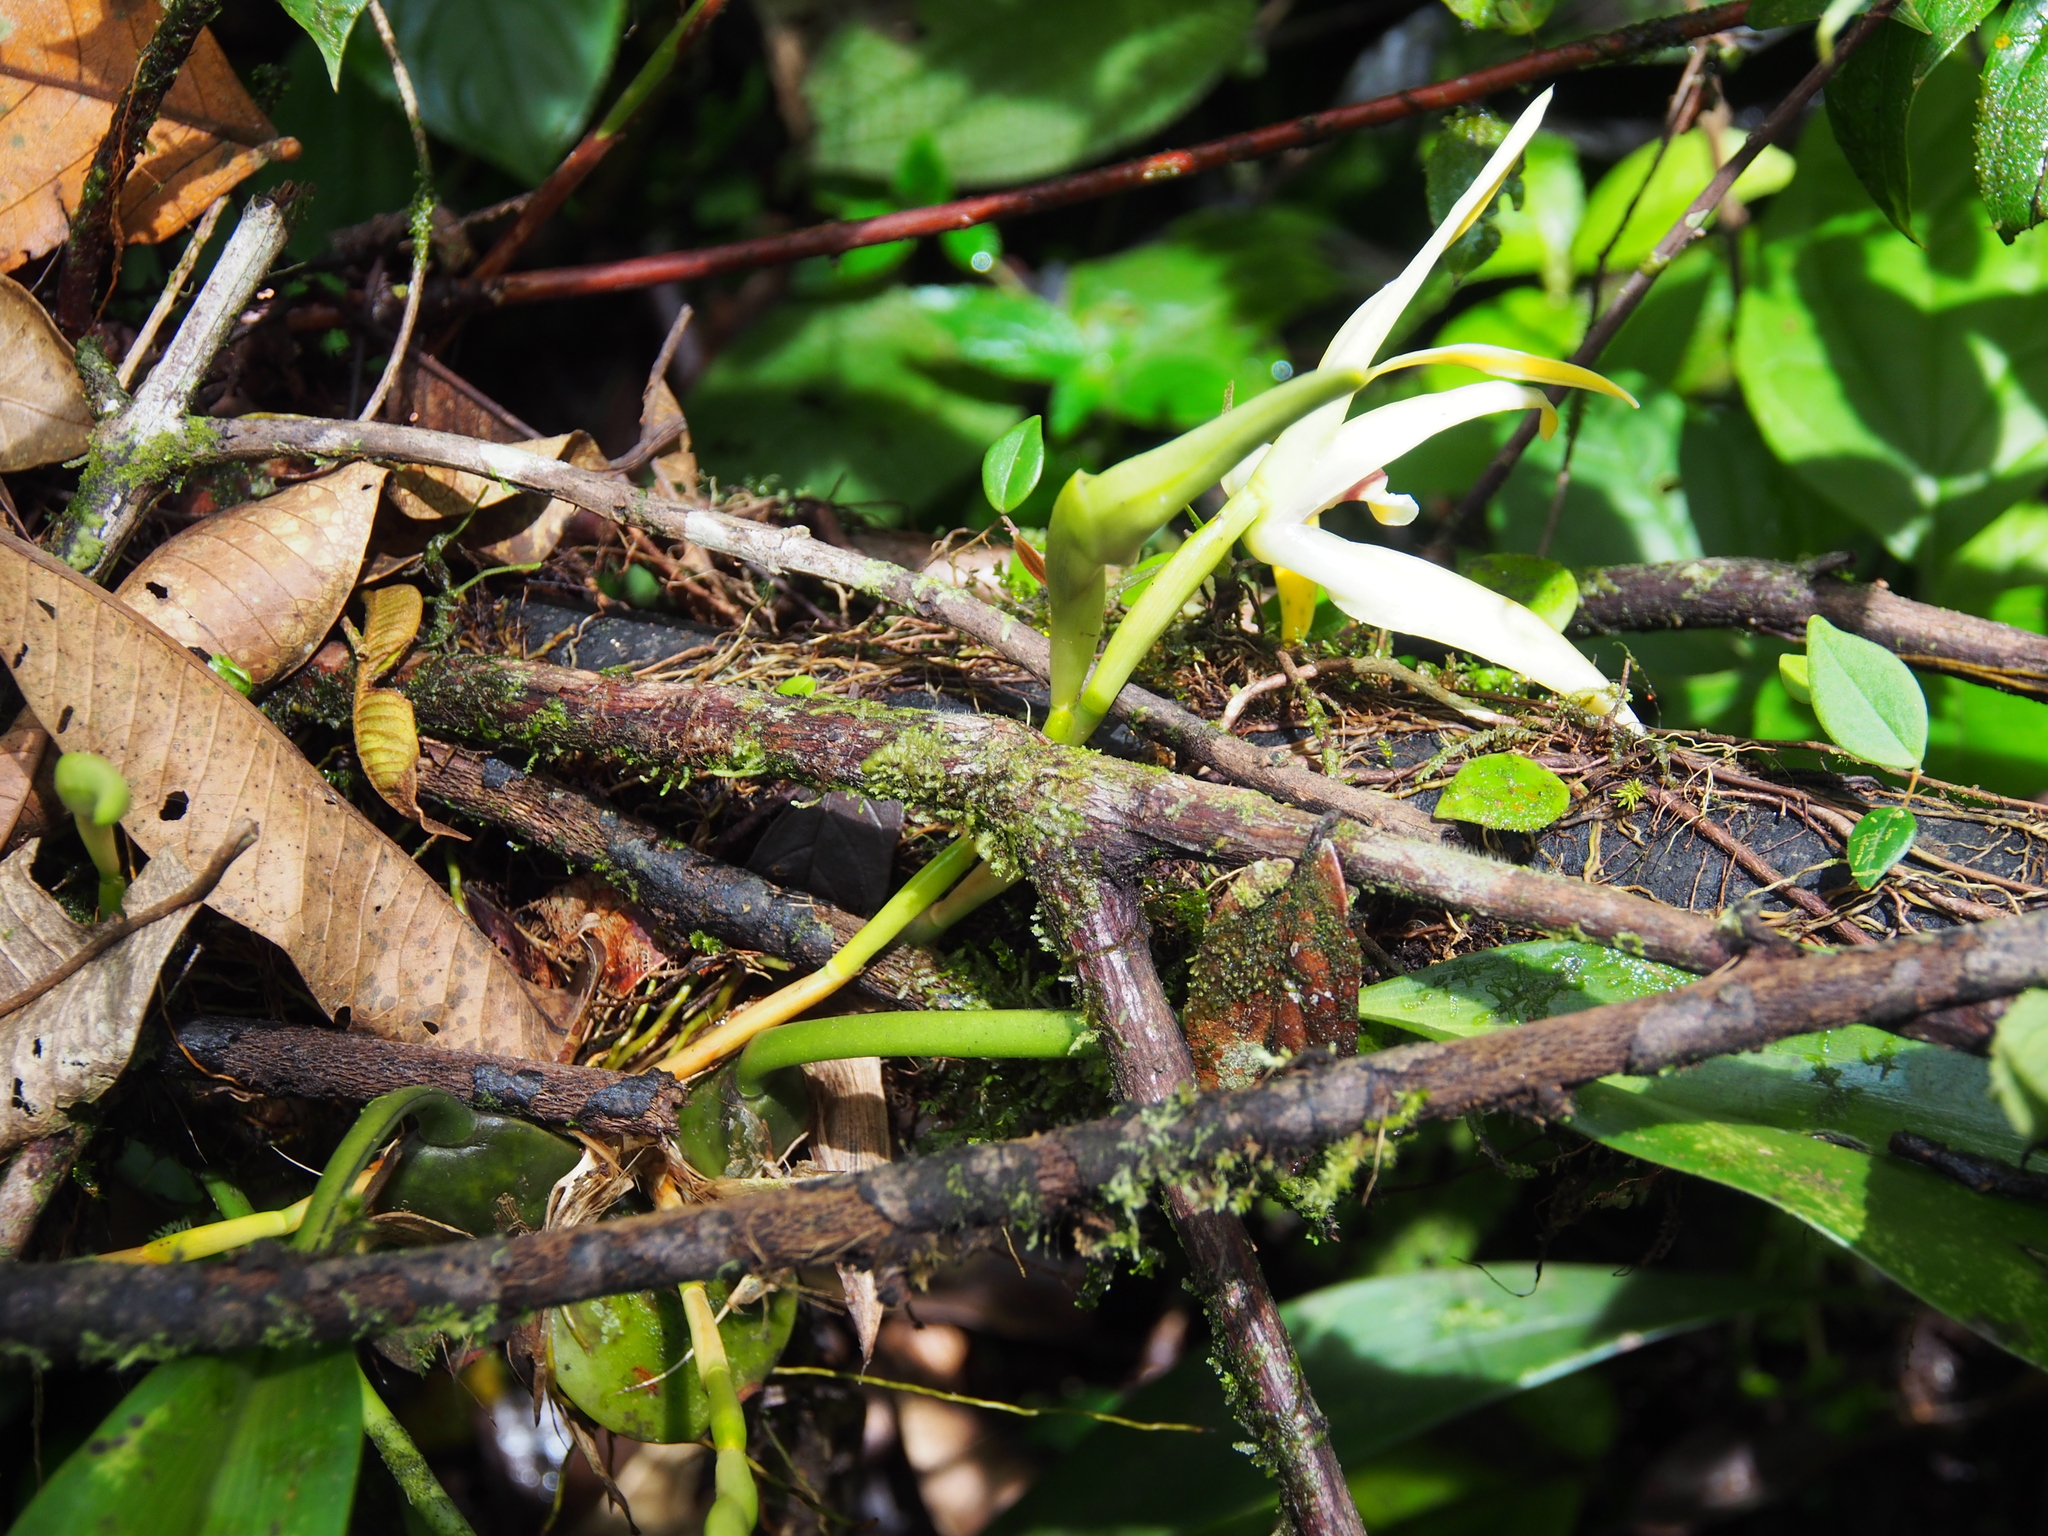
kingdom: Plantae
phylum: Tracheophyta
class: Liliopsida
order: Asparagales
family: Orchidaceae
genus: Maxillaria
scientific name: Maxillaria endresii
